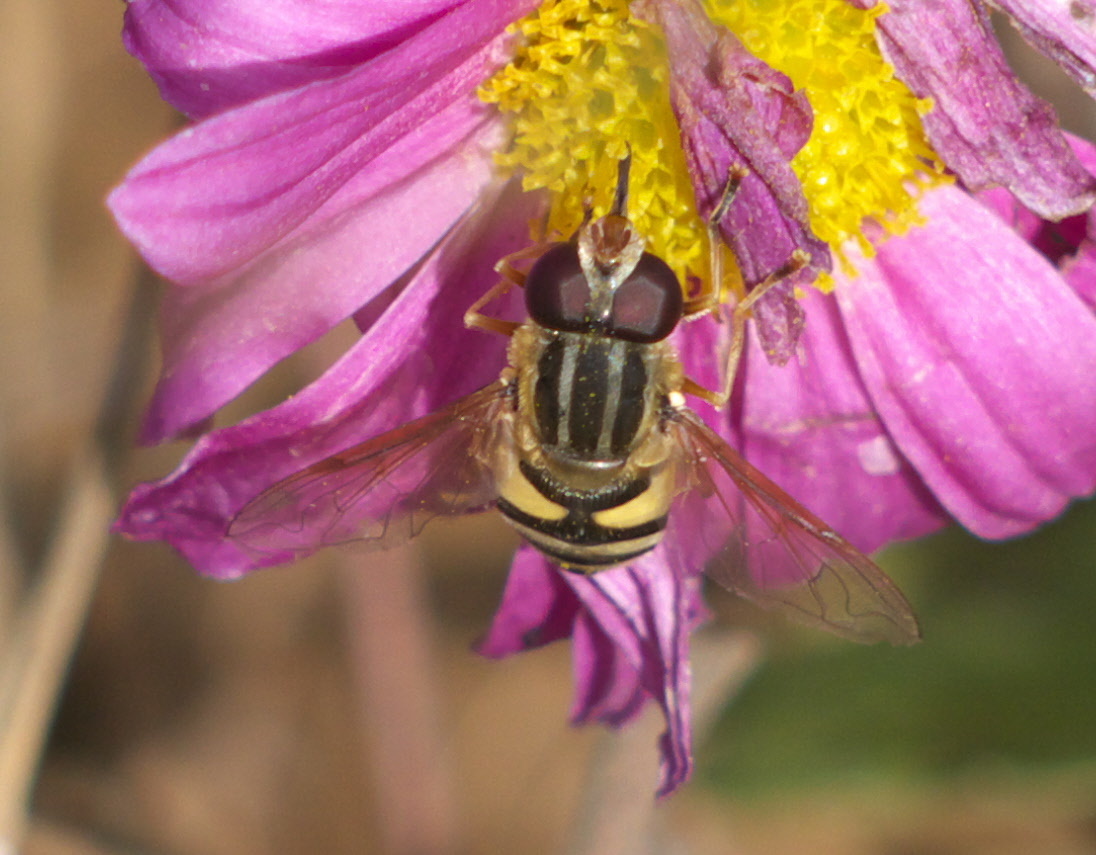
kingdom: Animalia
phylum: Arthropoda
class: Insecta
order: Diptera
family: Syrphidae
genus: Helophilus
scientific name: Helophilus fasciatus
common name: Narrow-headed marsh fly
